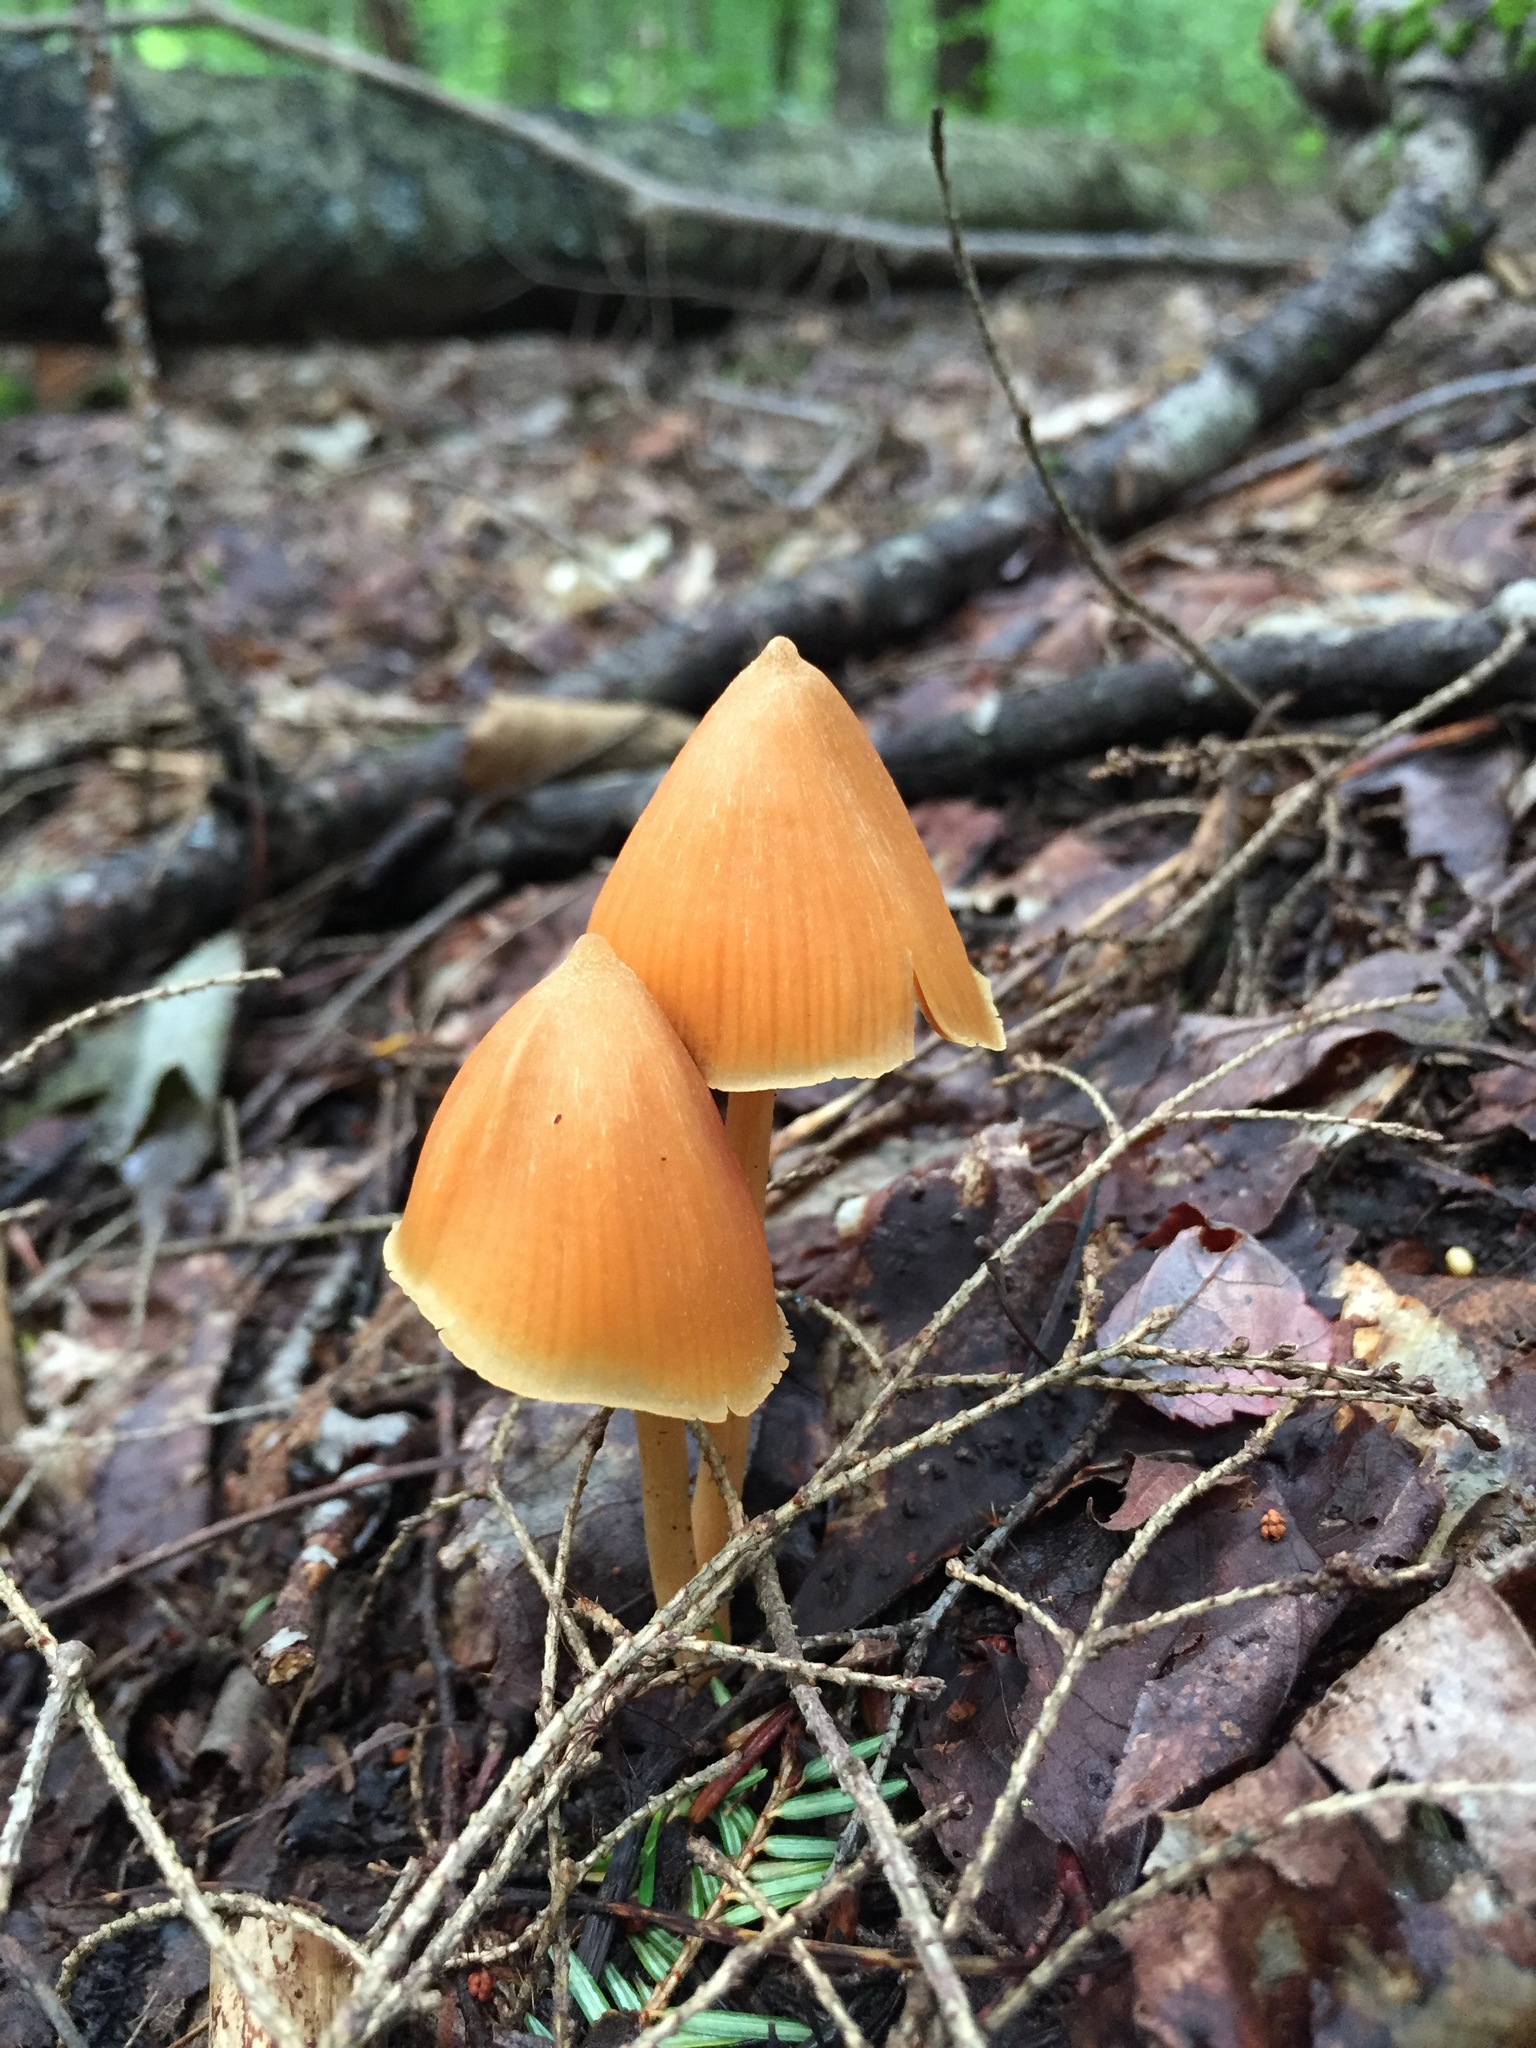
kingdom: Fungi
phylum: Basidiomycota
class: Agaricomycetes
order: Agaricales
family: Entolomataceae
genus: Entoloma
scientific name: Entoloma quadratum
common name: Salmon pinkgill
